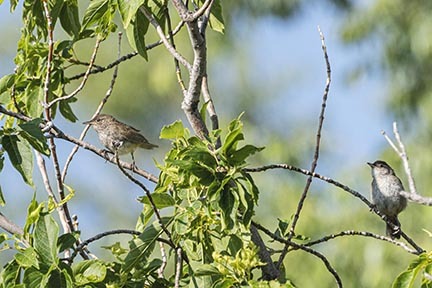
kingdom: Animalia
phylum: Chordata
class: Aves
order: Passeriformes
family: Troglodytidae
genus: Troglodytes
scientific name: Troglodytes aedon
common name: House wren
